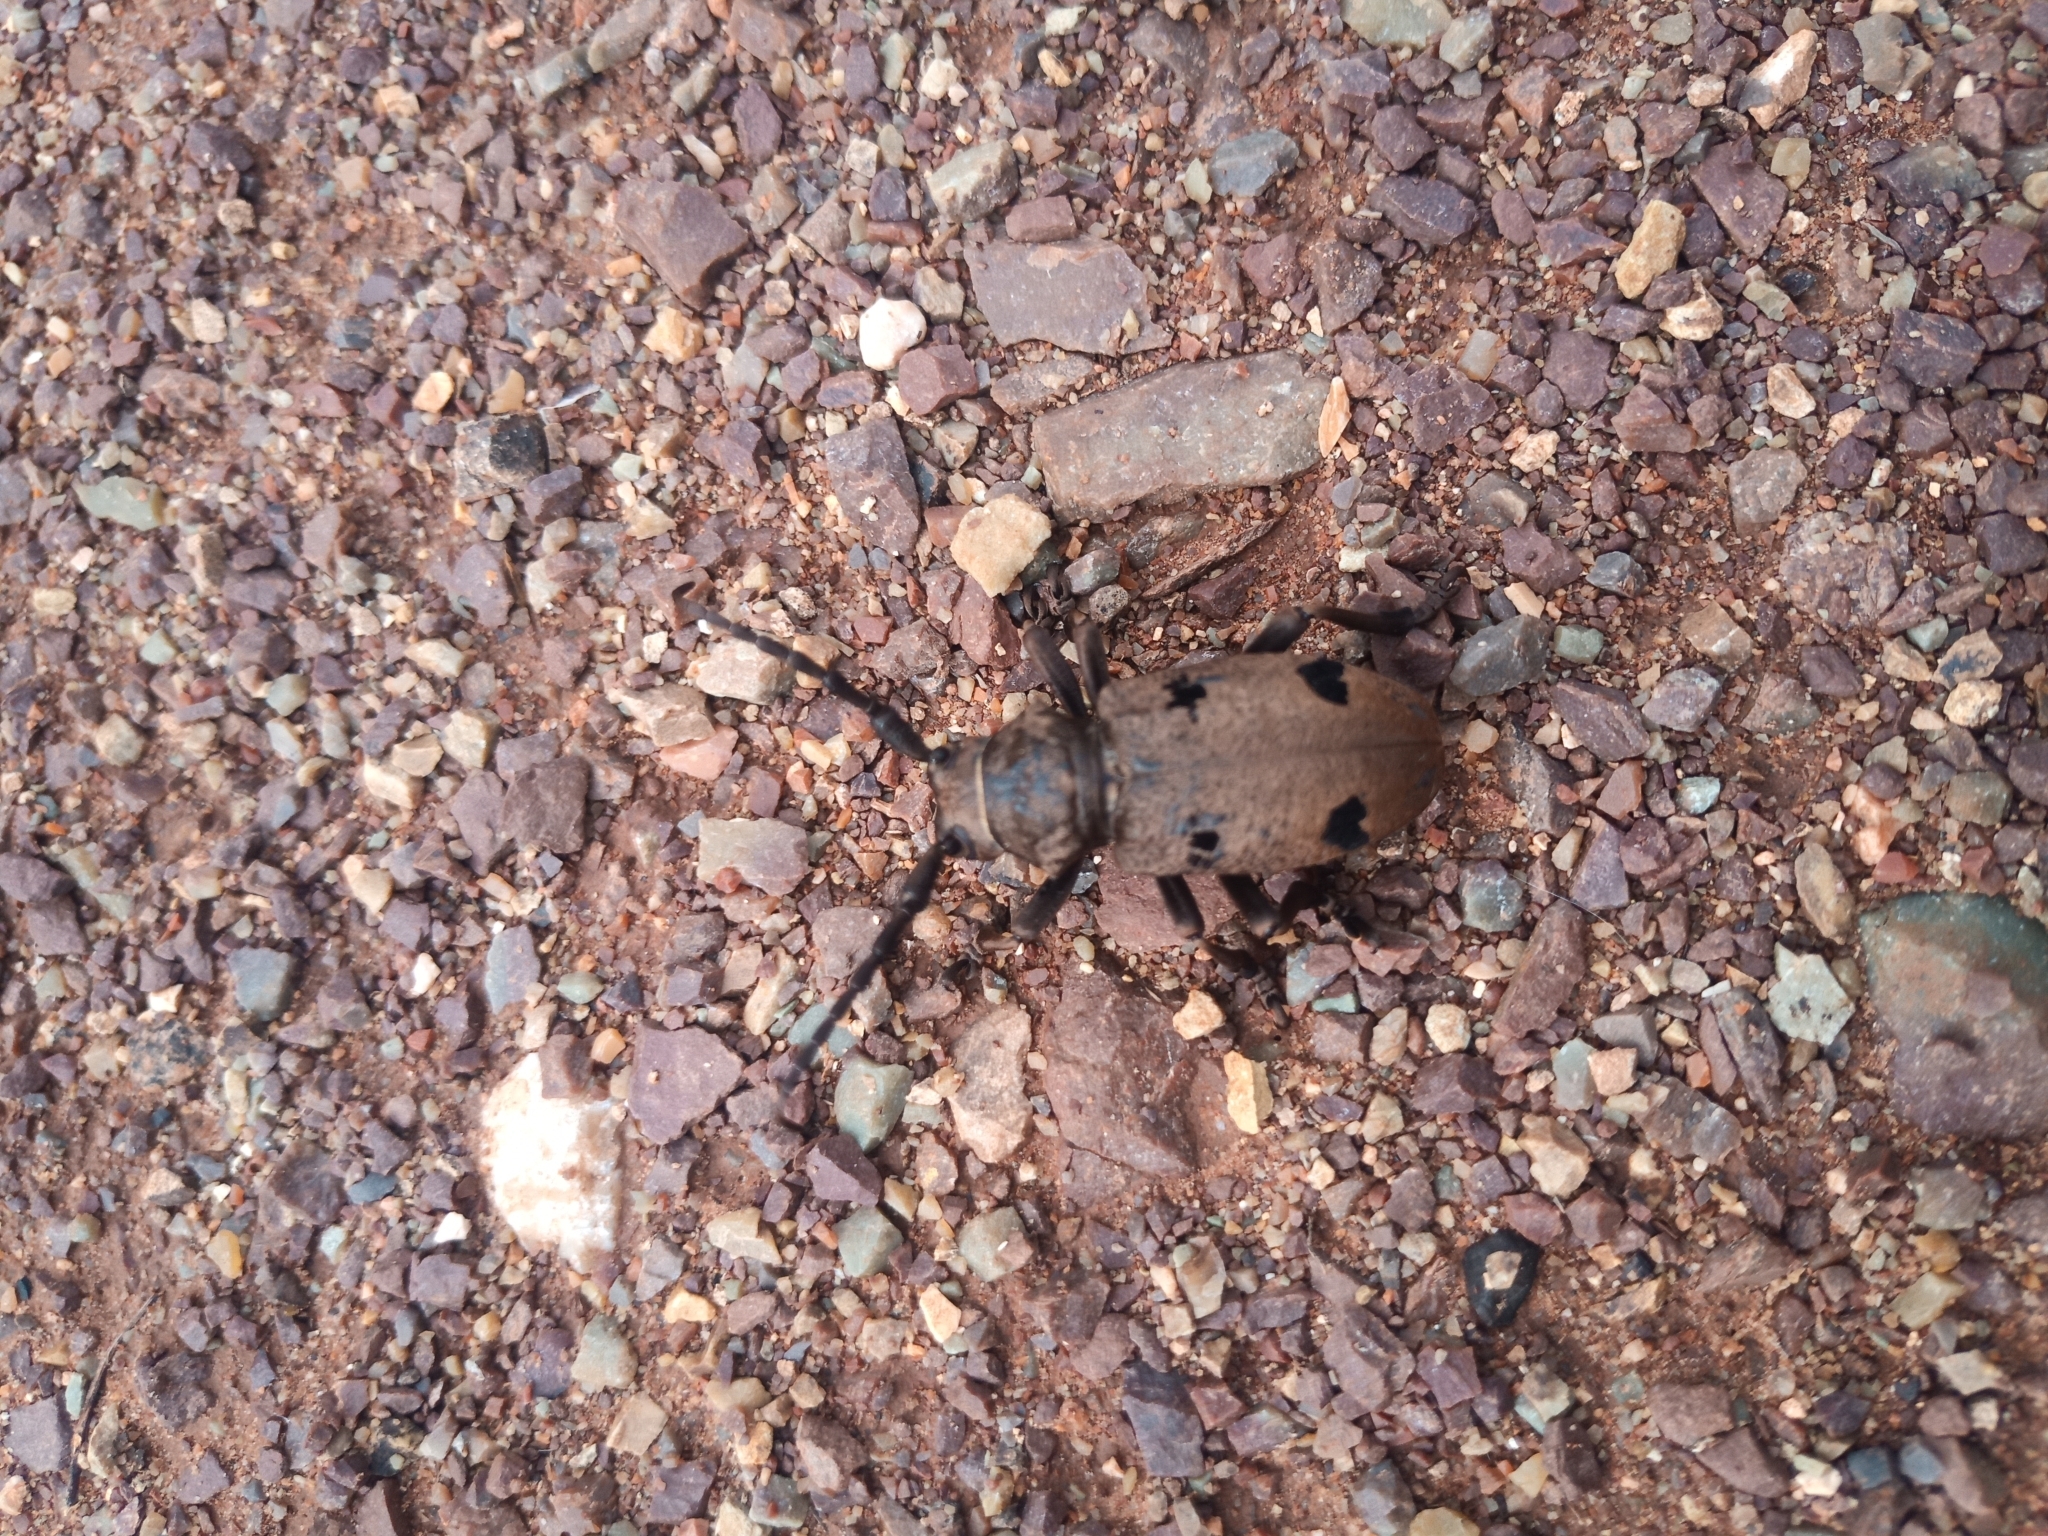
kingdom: Animalia
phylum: Arthropoda
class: Insecta
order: Coleoptera
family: Cerambycidae
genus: Herophila
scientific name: Herophila tristis
